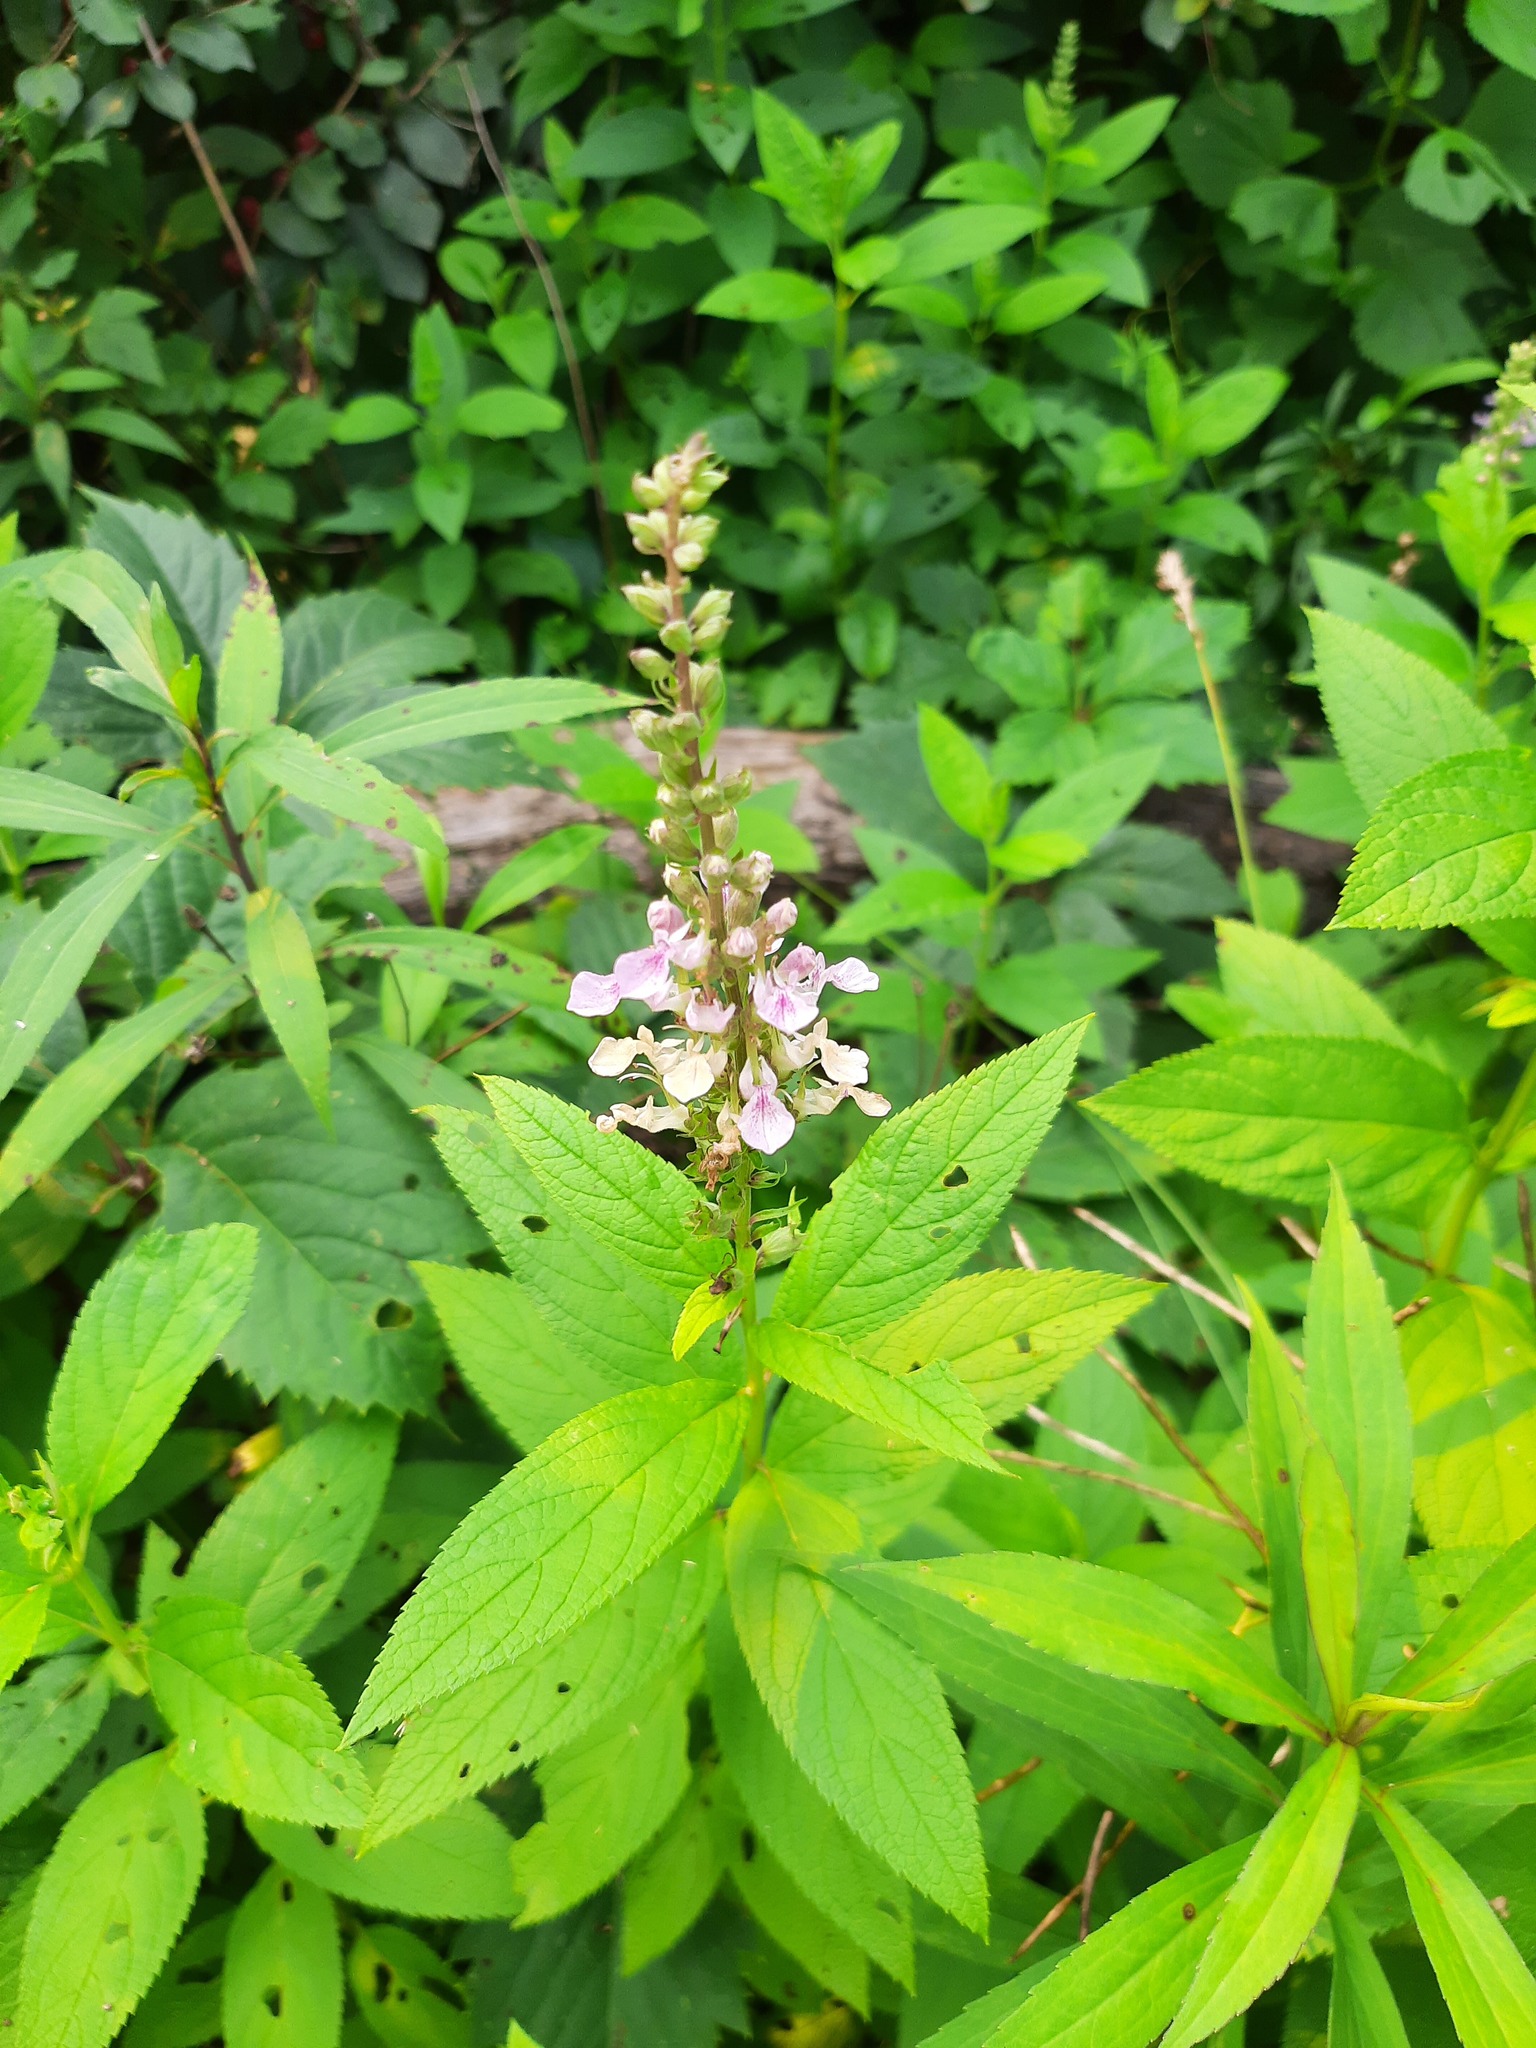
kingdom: Plantae
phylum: Tracheophyta
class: Magnoliopsida
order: Lamiales
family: Lamiaceae
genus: Teucrium
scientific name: Teucrium canadense
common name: American germander
